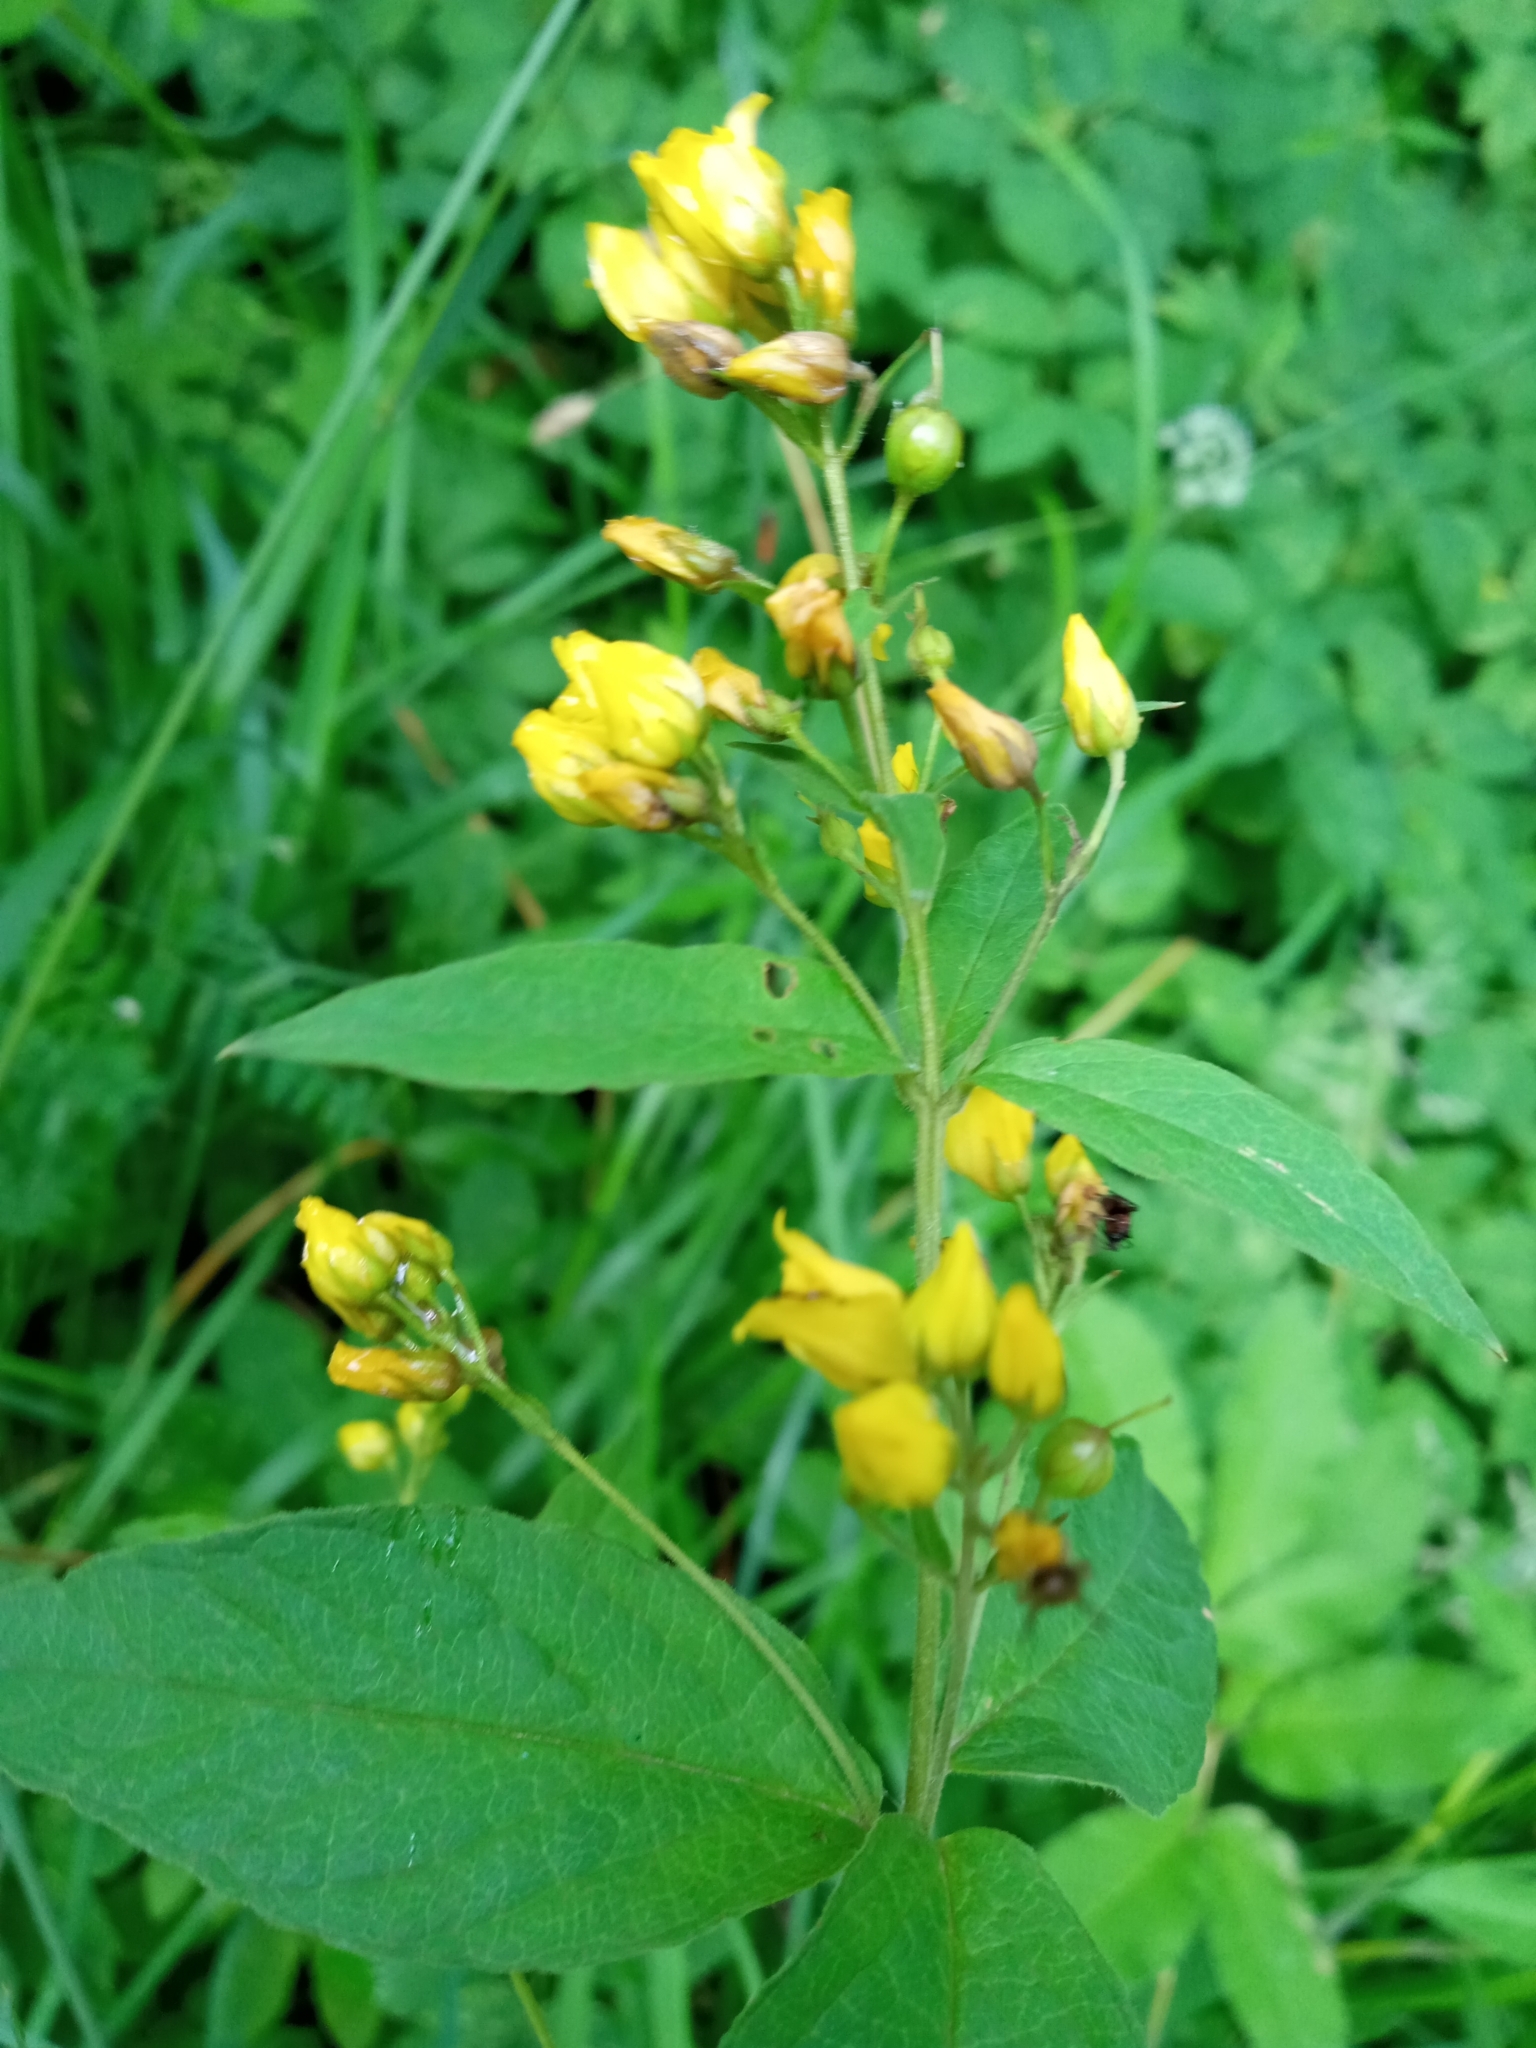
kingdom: Plantae
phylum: Tracheophyta
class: Magnoliopsida
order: Ericales
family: Primulaceae
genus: Lysimachia
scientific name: Lysimachia vulgaris
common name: Yellow loosestrife
